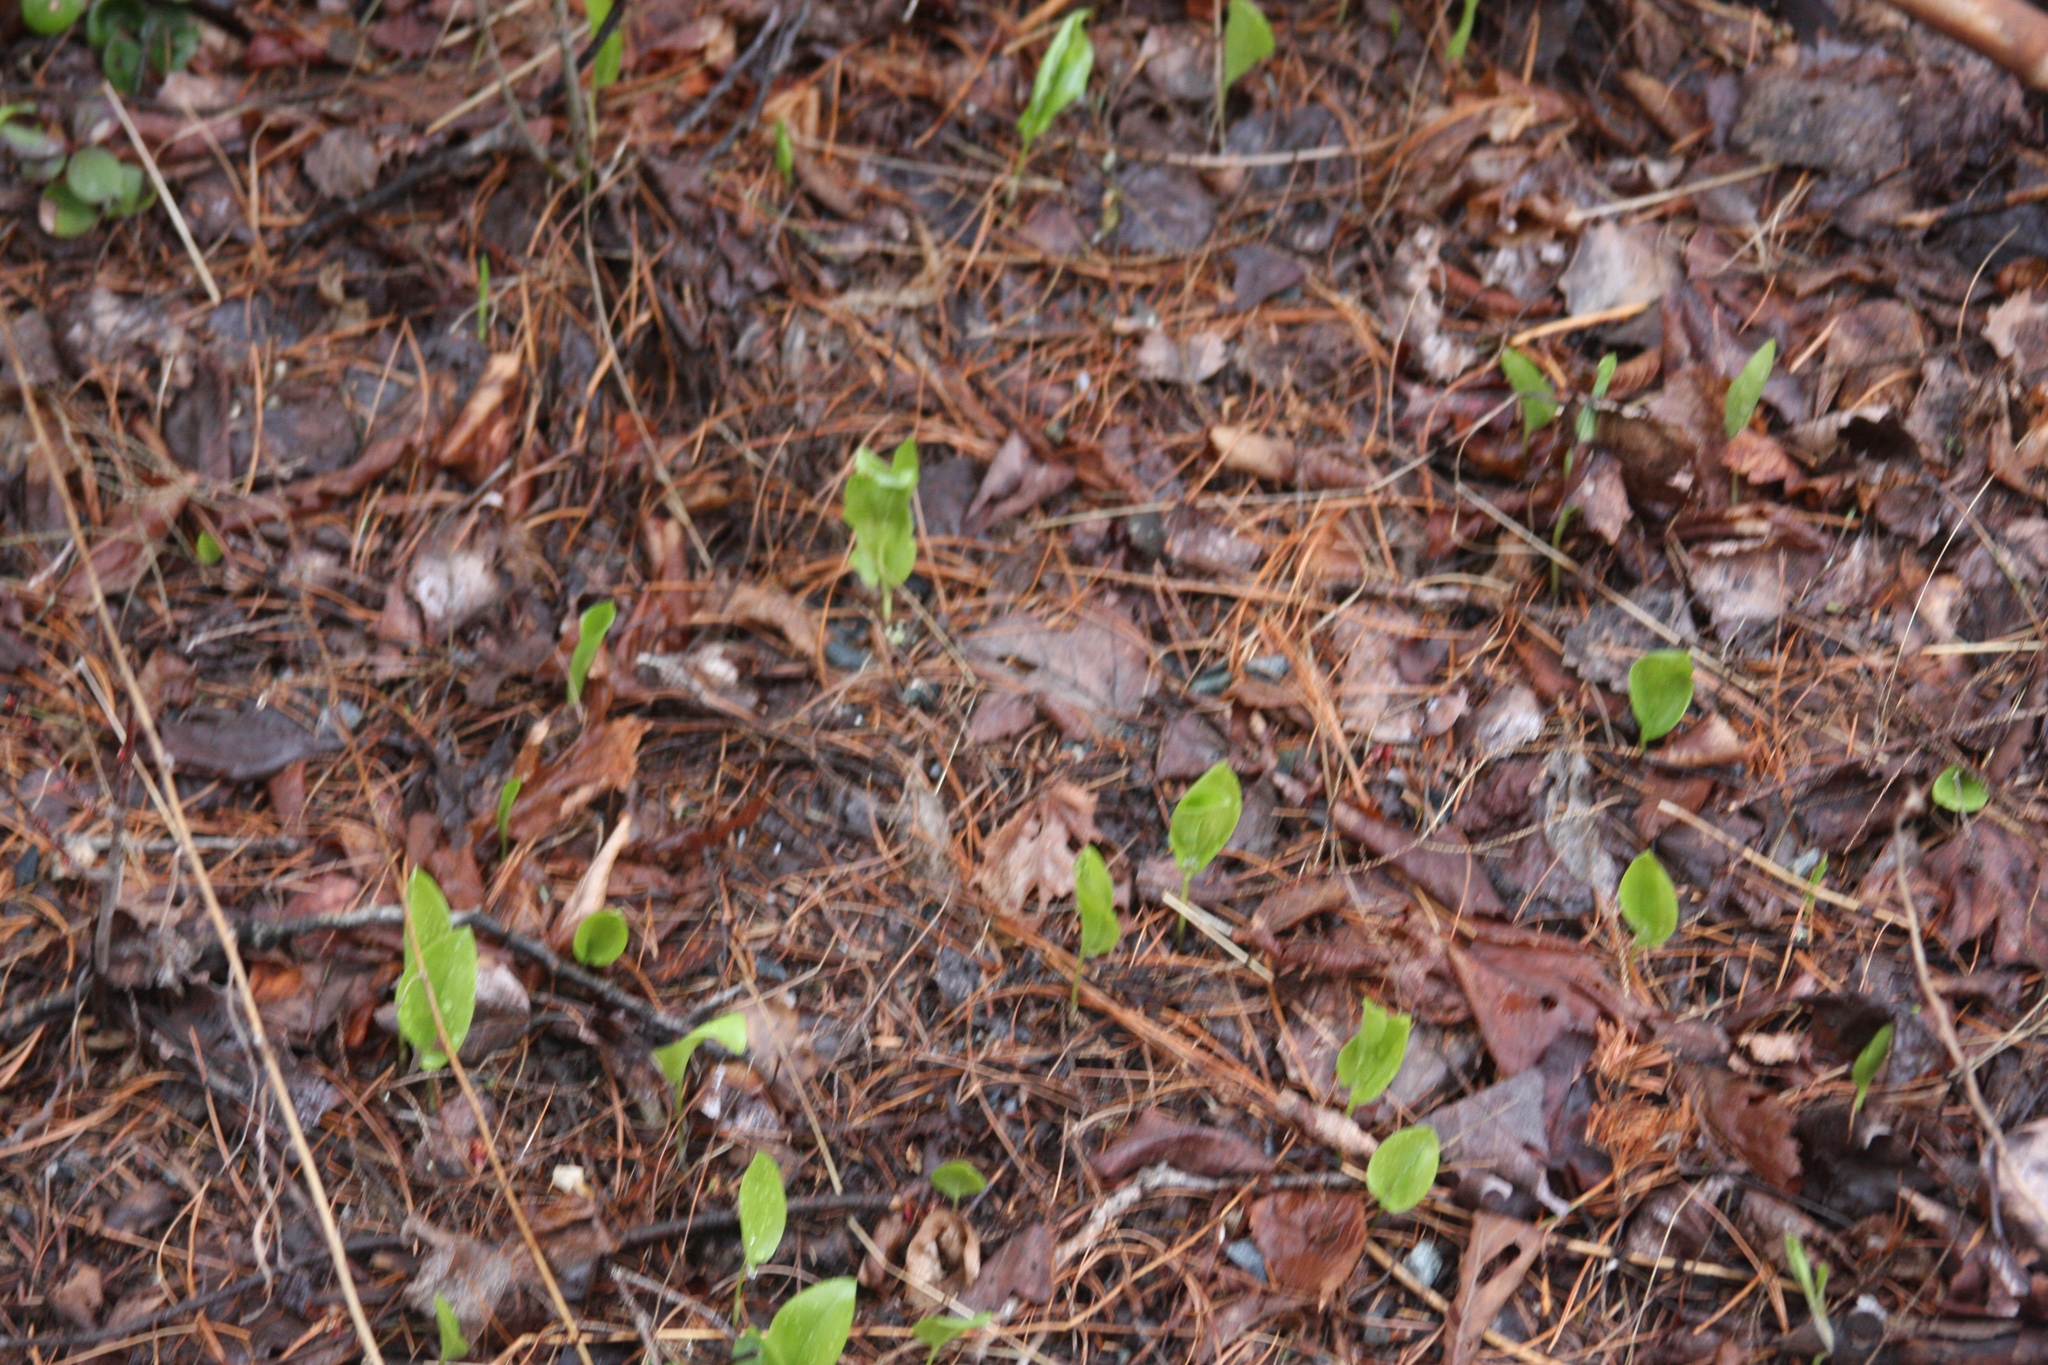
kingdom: Plantae
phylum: Tracheophyta
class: Liliopsida
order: Asparagales
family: Asparagaceae
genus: Maianthemum
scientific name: Maianthemum canadense
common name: False lily-of-the-valley
